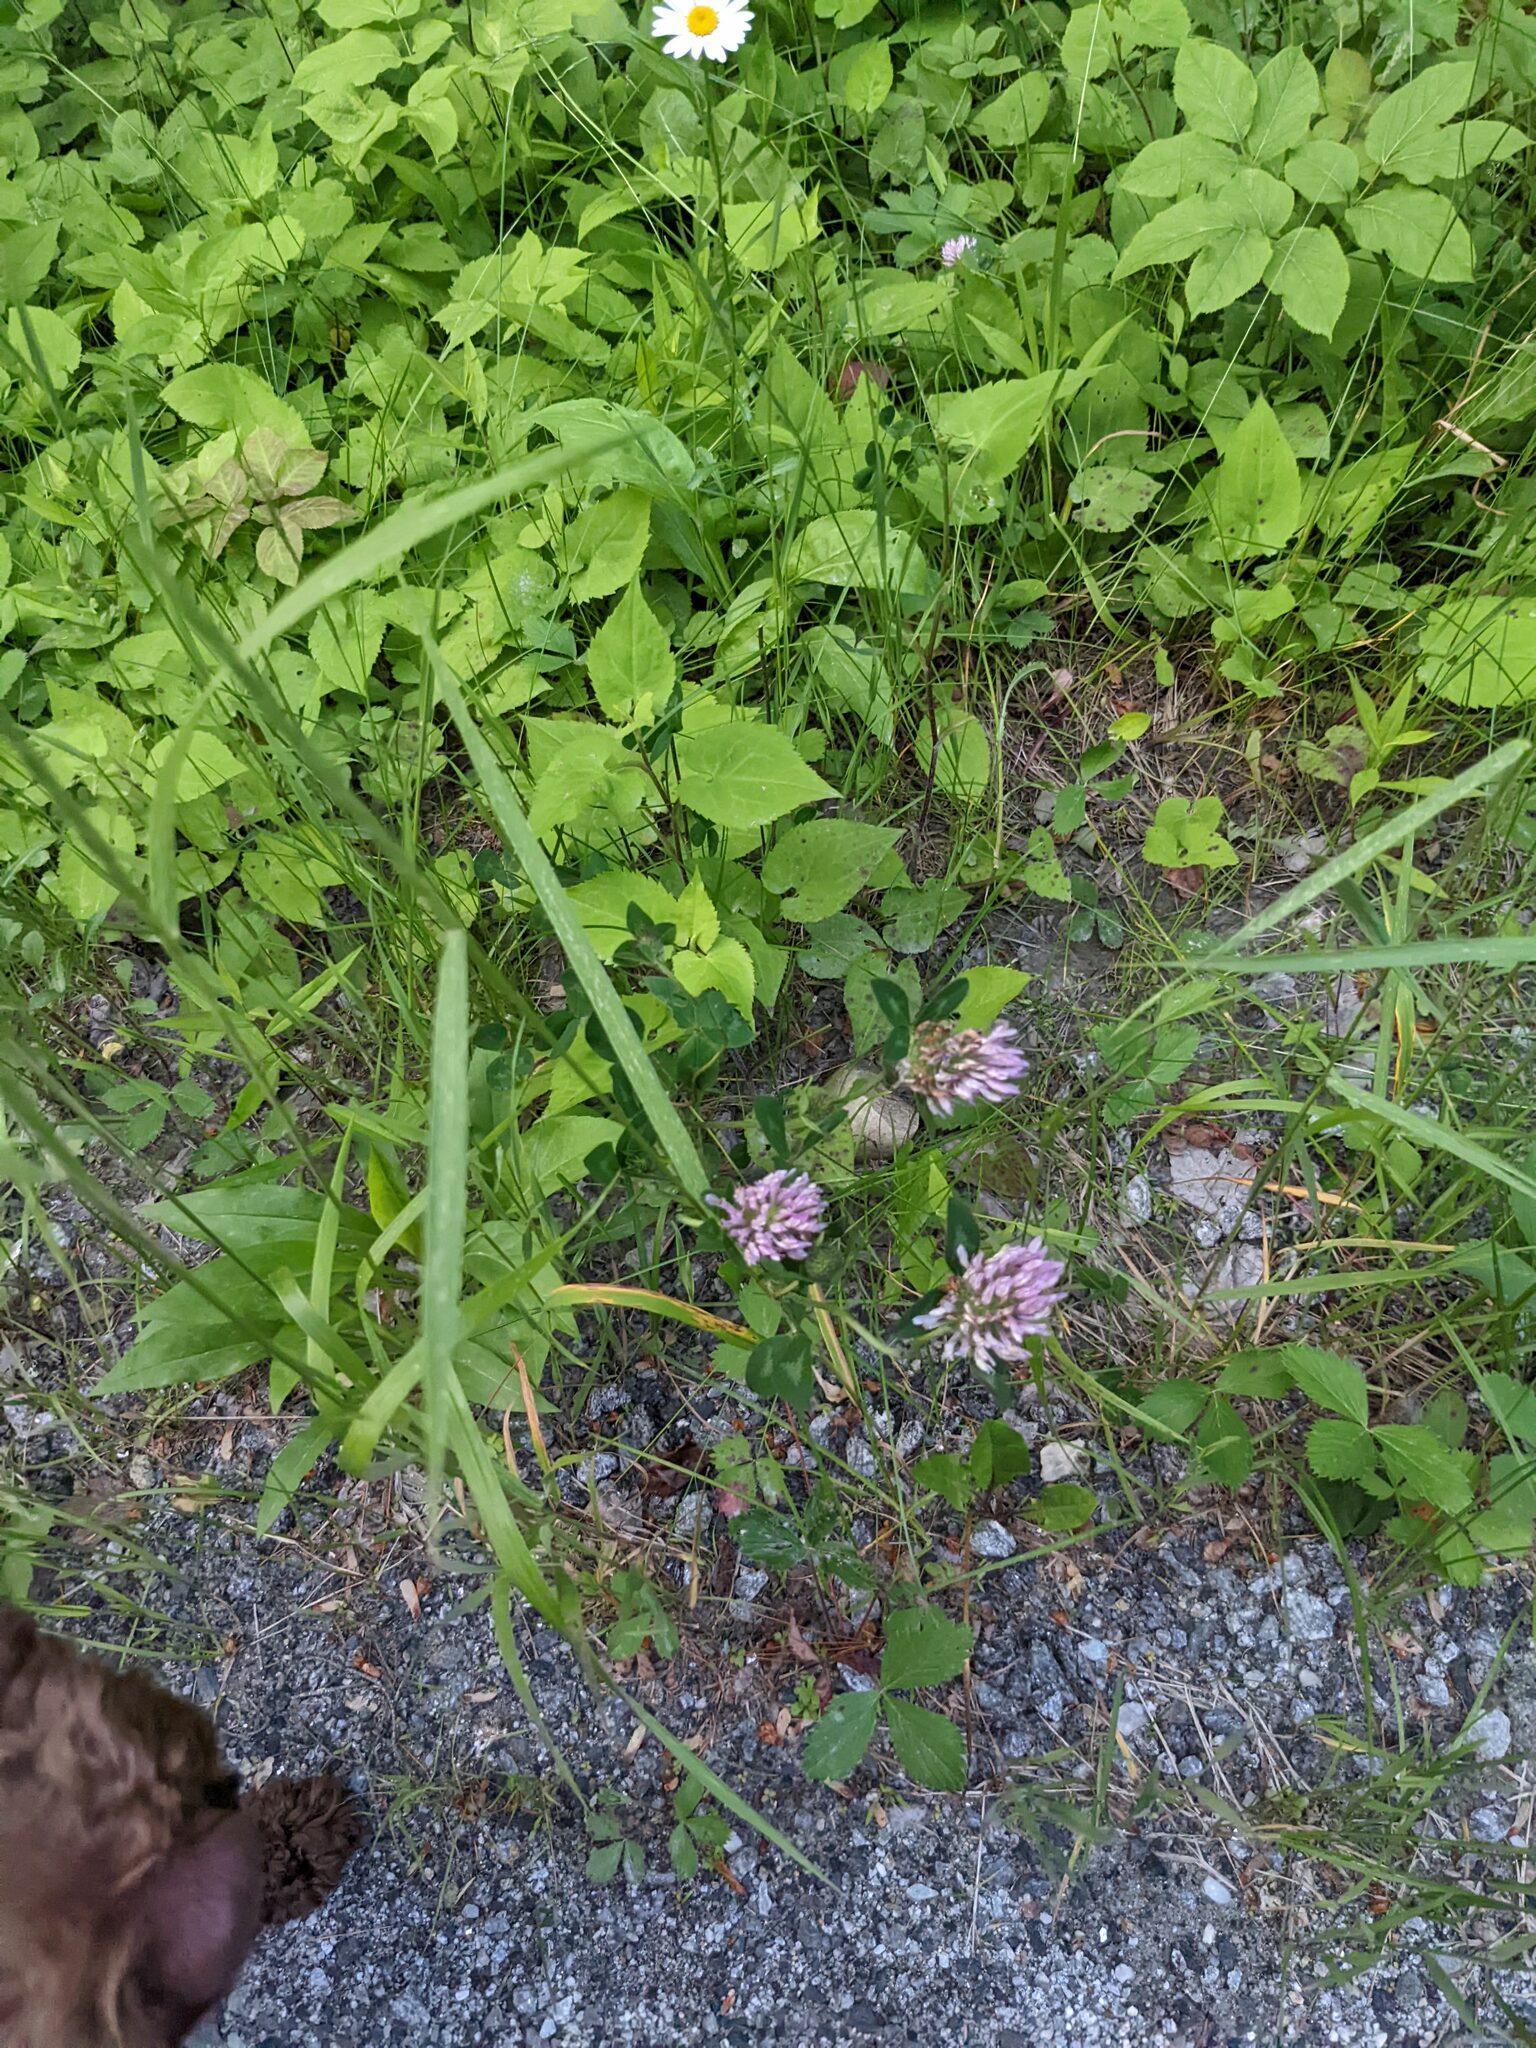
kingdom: Plantae
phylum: Tracheophyta
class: Magnoliopsida
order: Fabales
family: Fabaceae
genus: Trifolium
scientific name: Trifolium pratense
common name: Red clover
